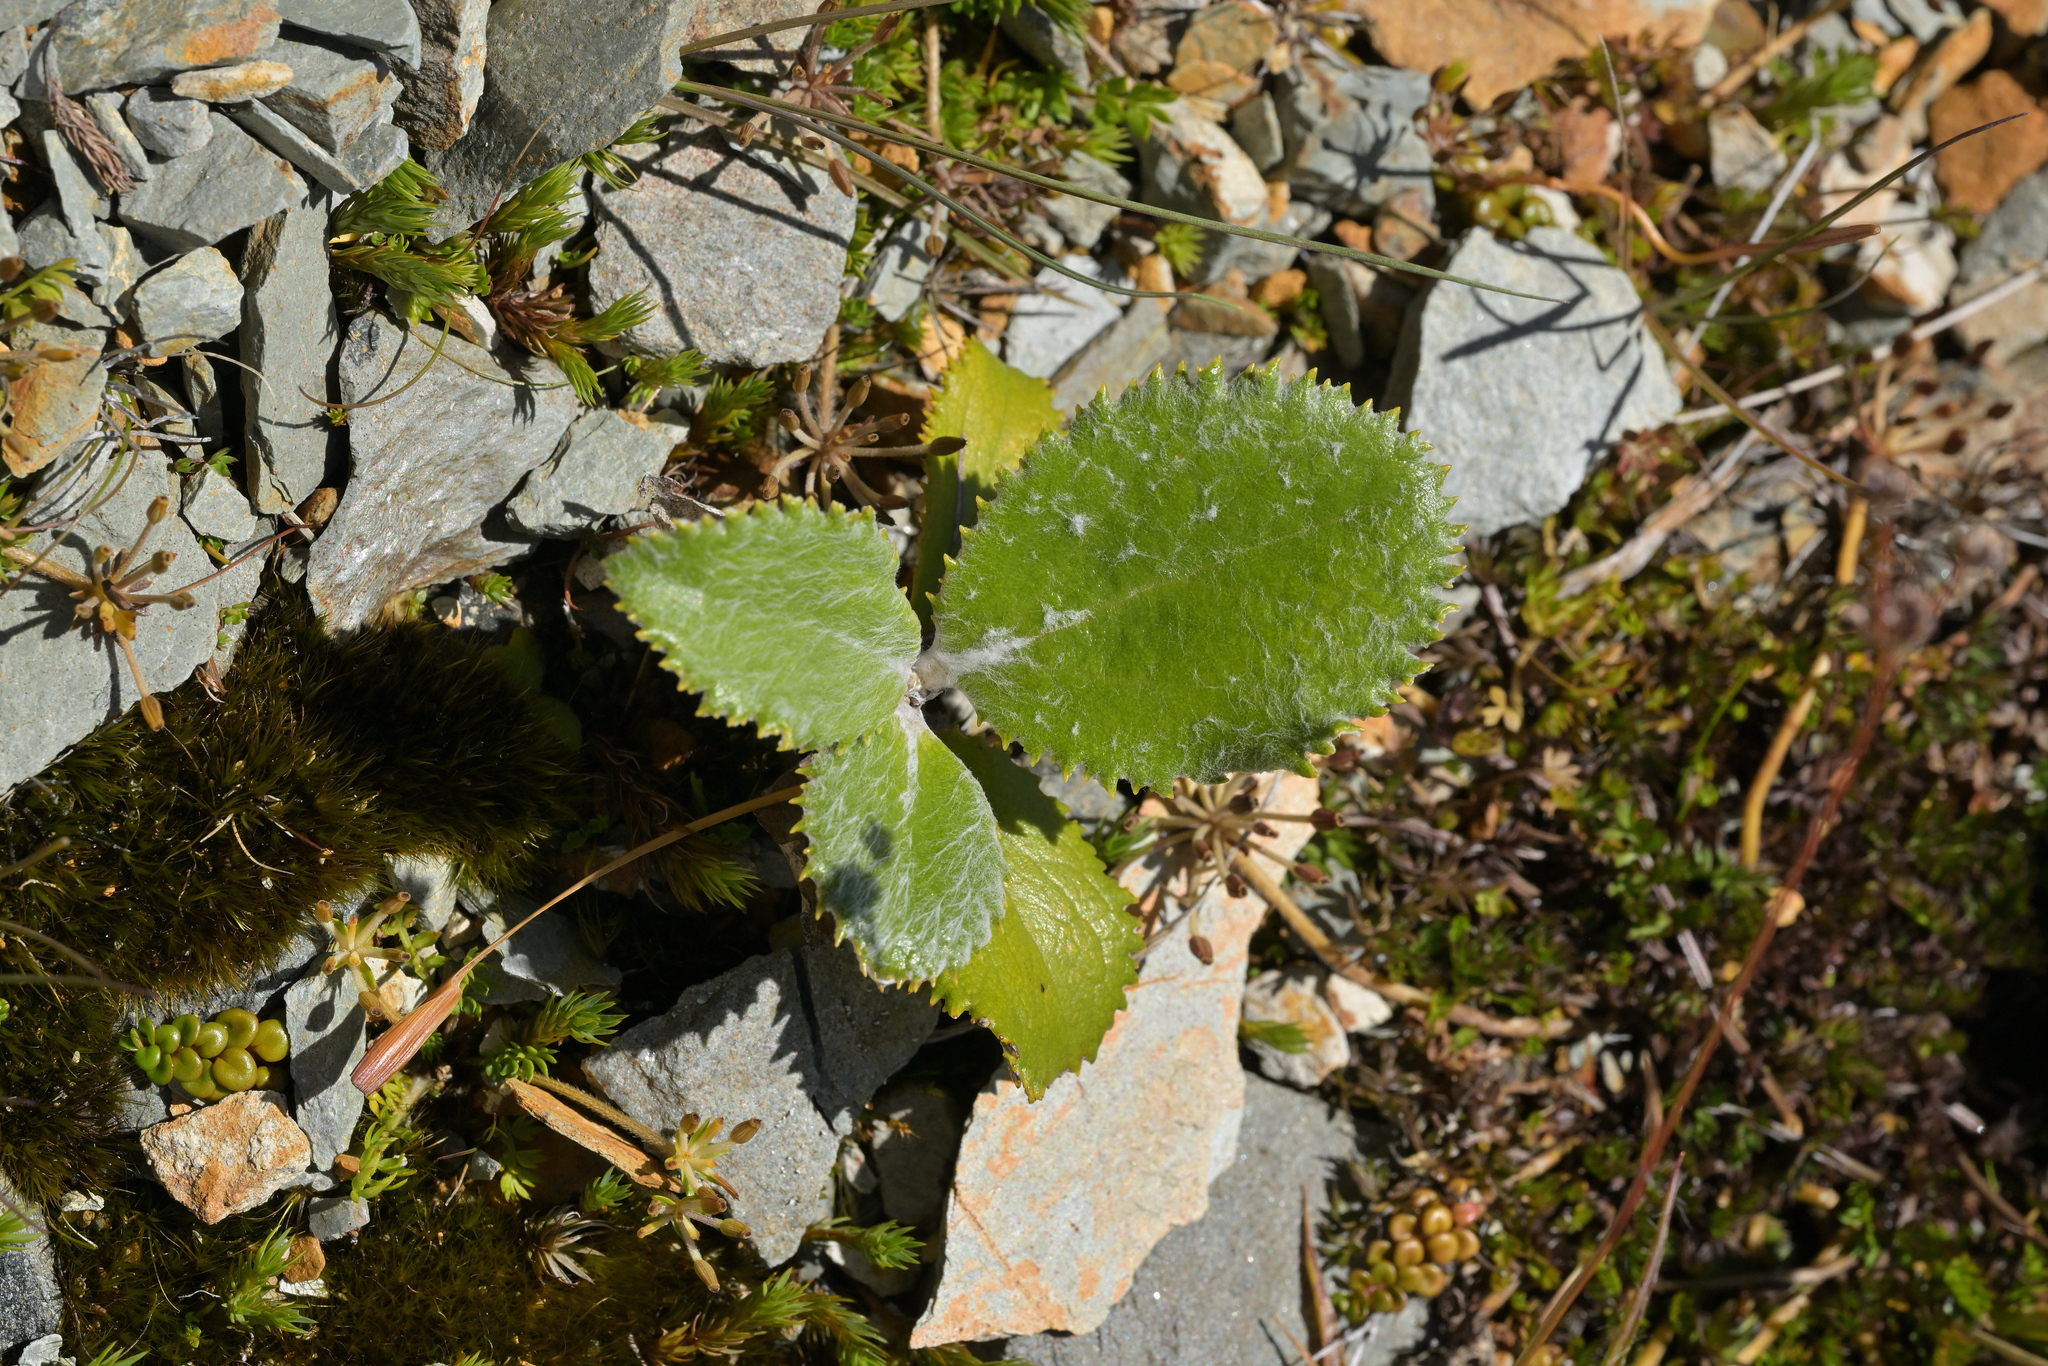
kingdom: Plantae
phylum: Tracheophyta
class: Magnoliopsida
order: Asterales
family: Asteraceae
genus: Macrolearia
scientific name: Macrolearia colensoi
